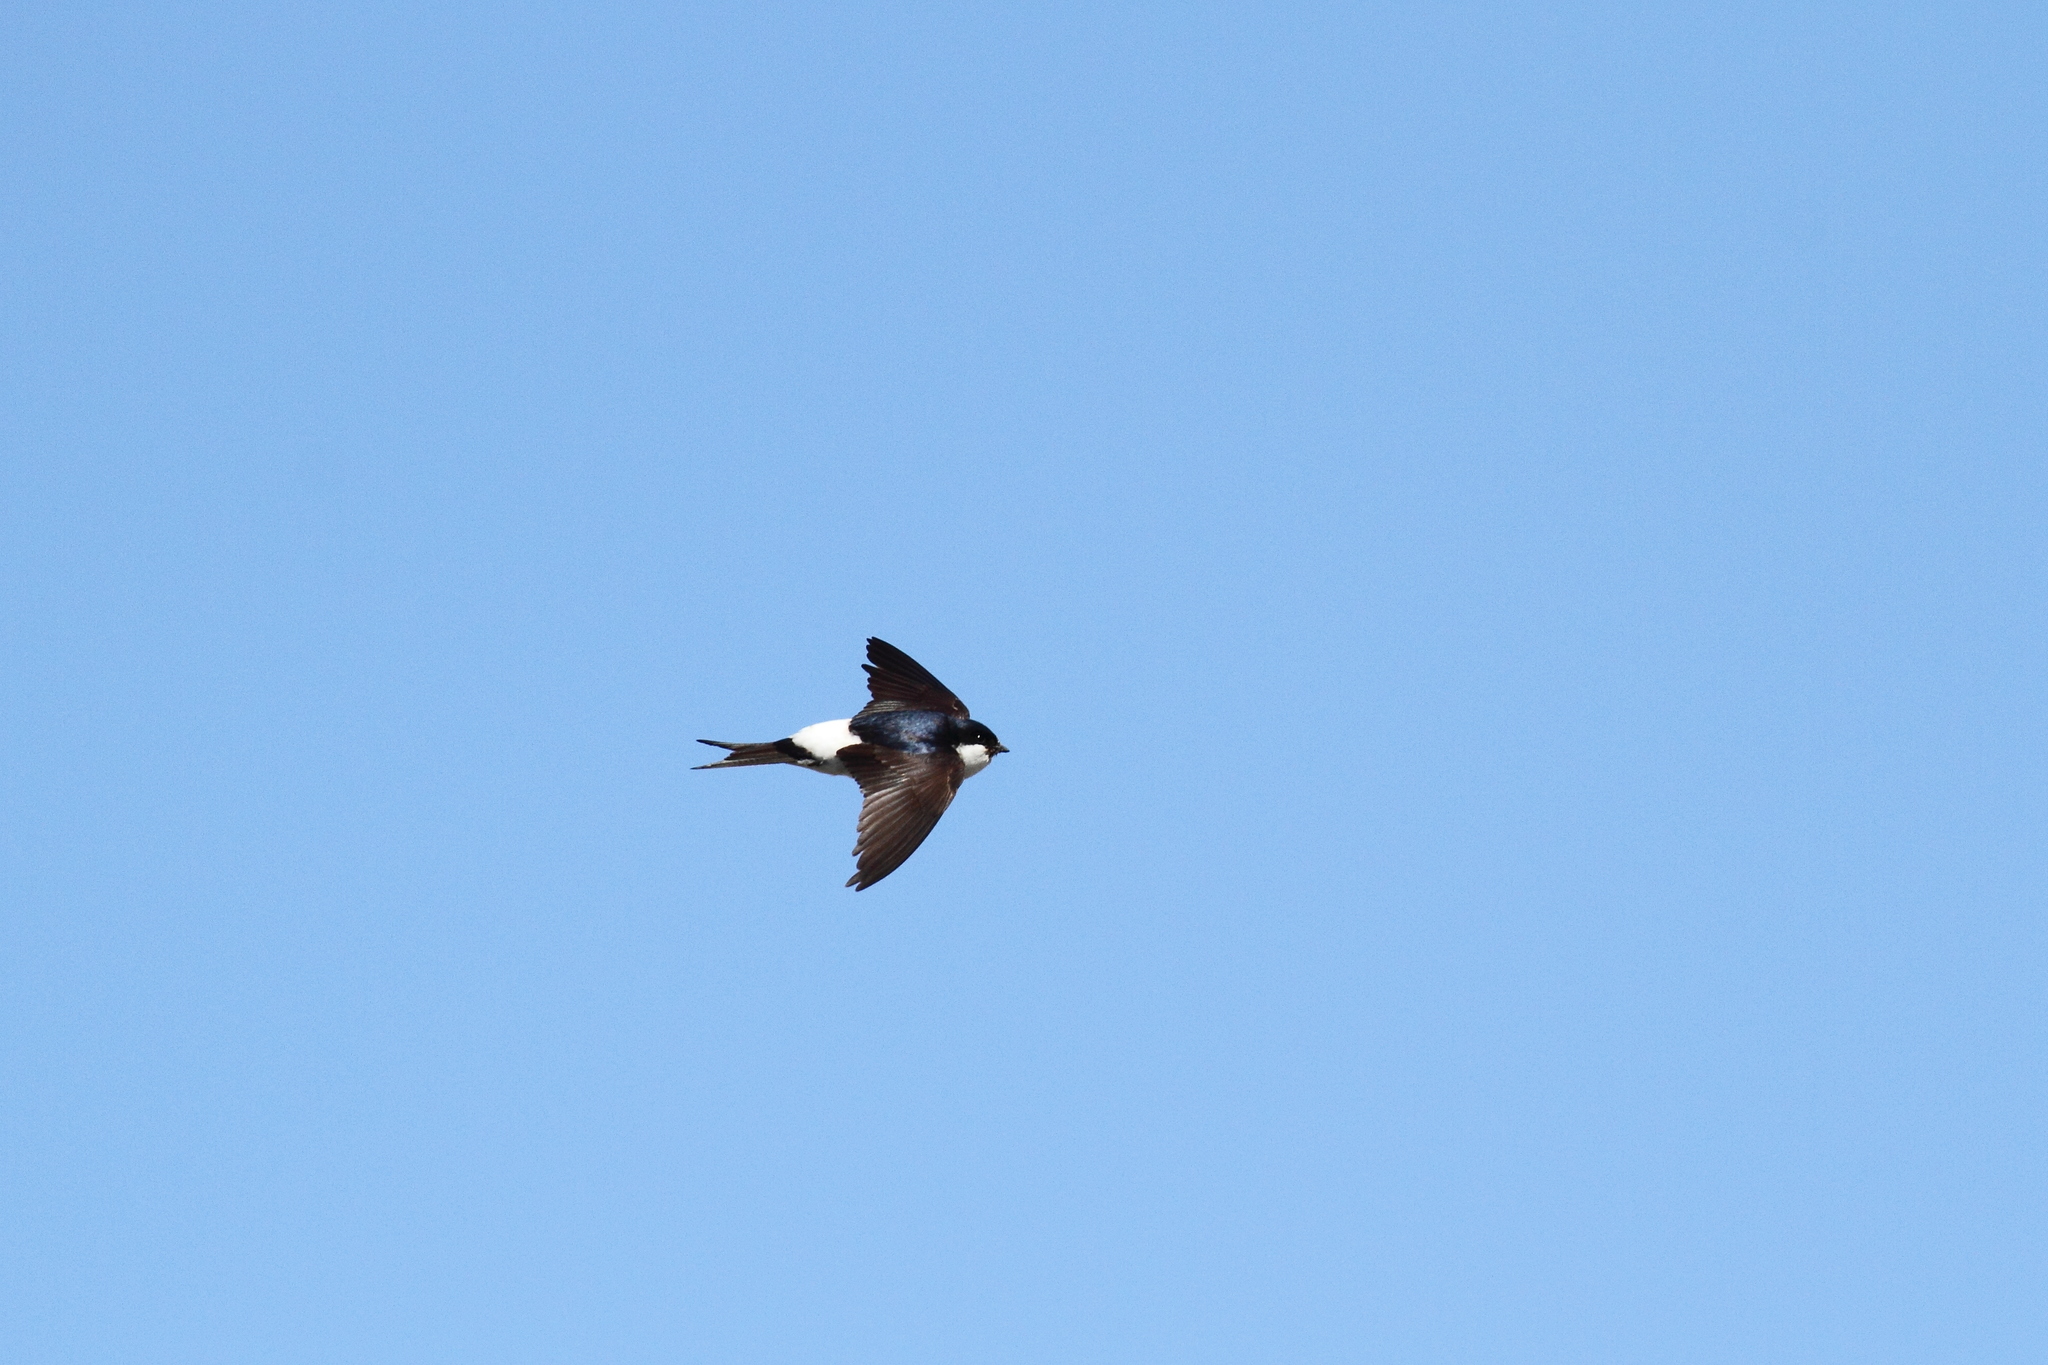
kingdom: Animalia
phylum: Chordata
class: Aves
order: Passeriformes
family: Hirundinidae
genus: Delichon
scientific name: Delichon urbicum
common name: Common house martin
